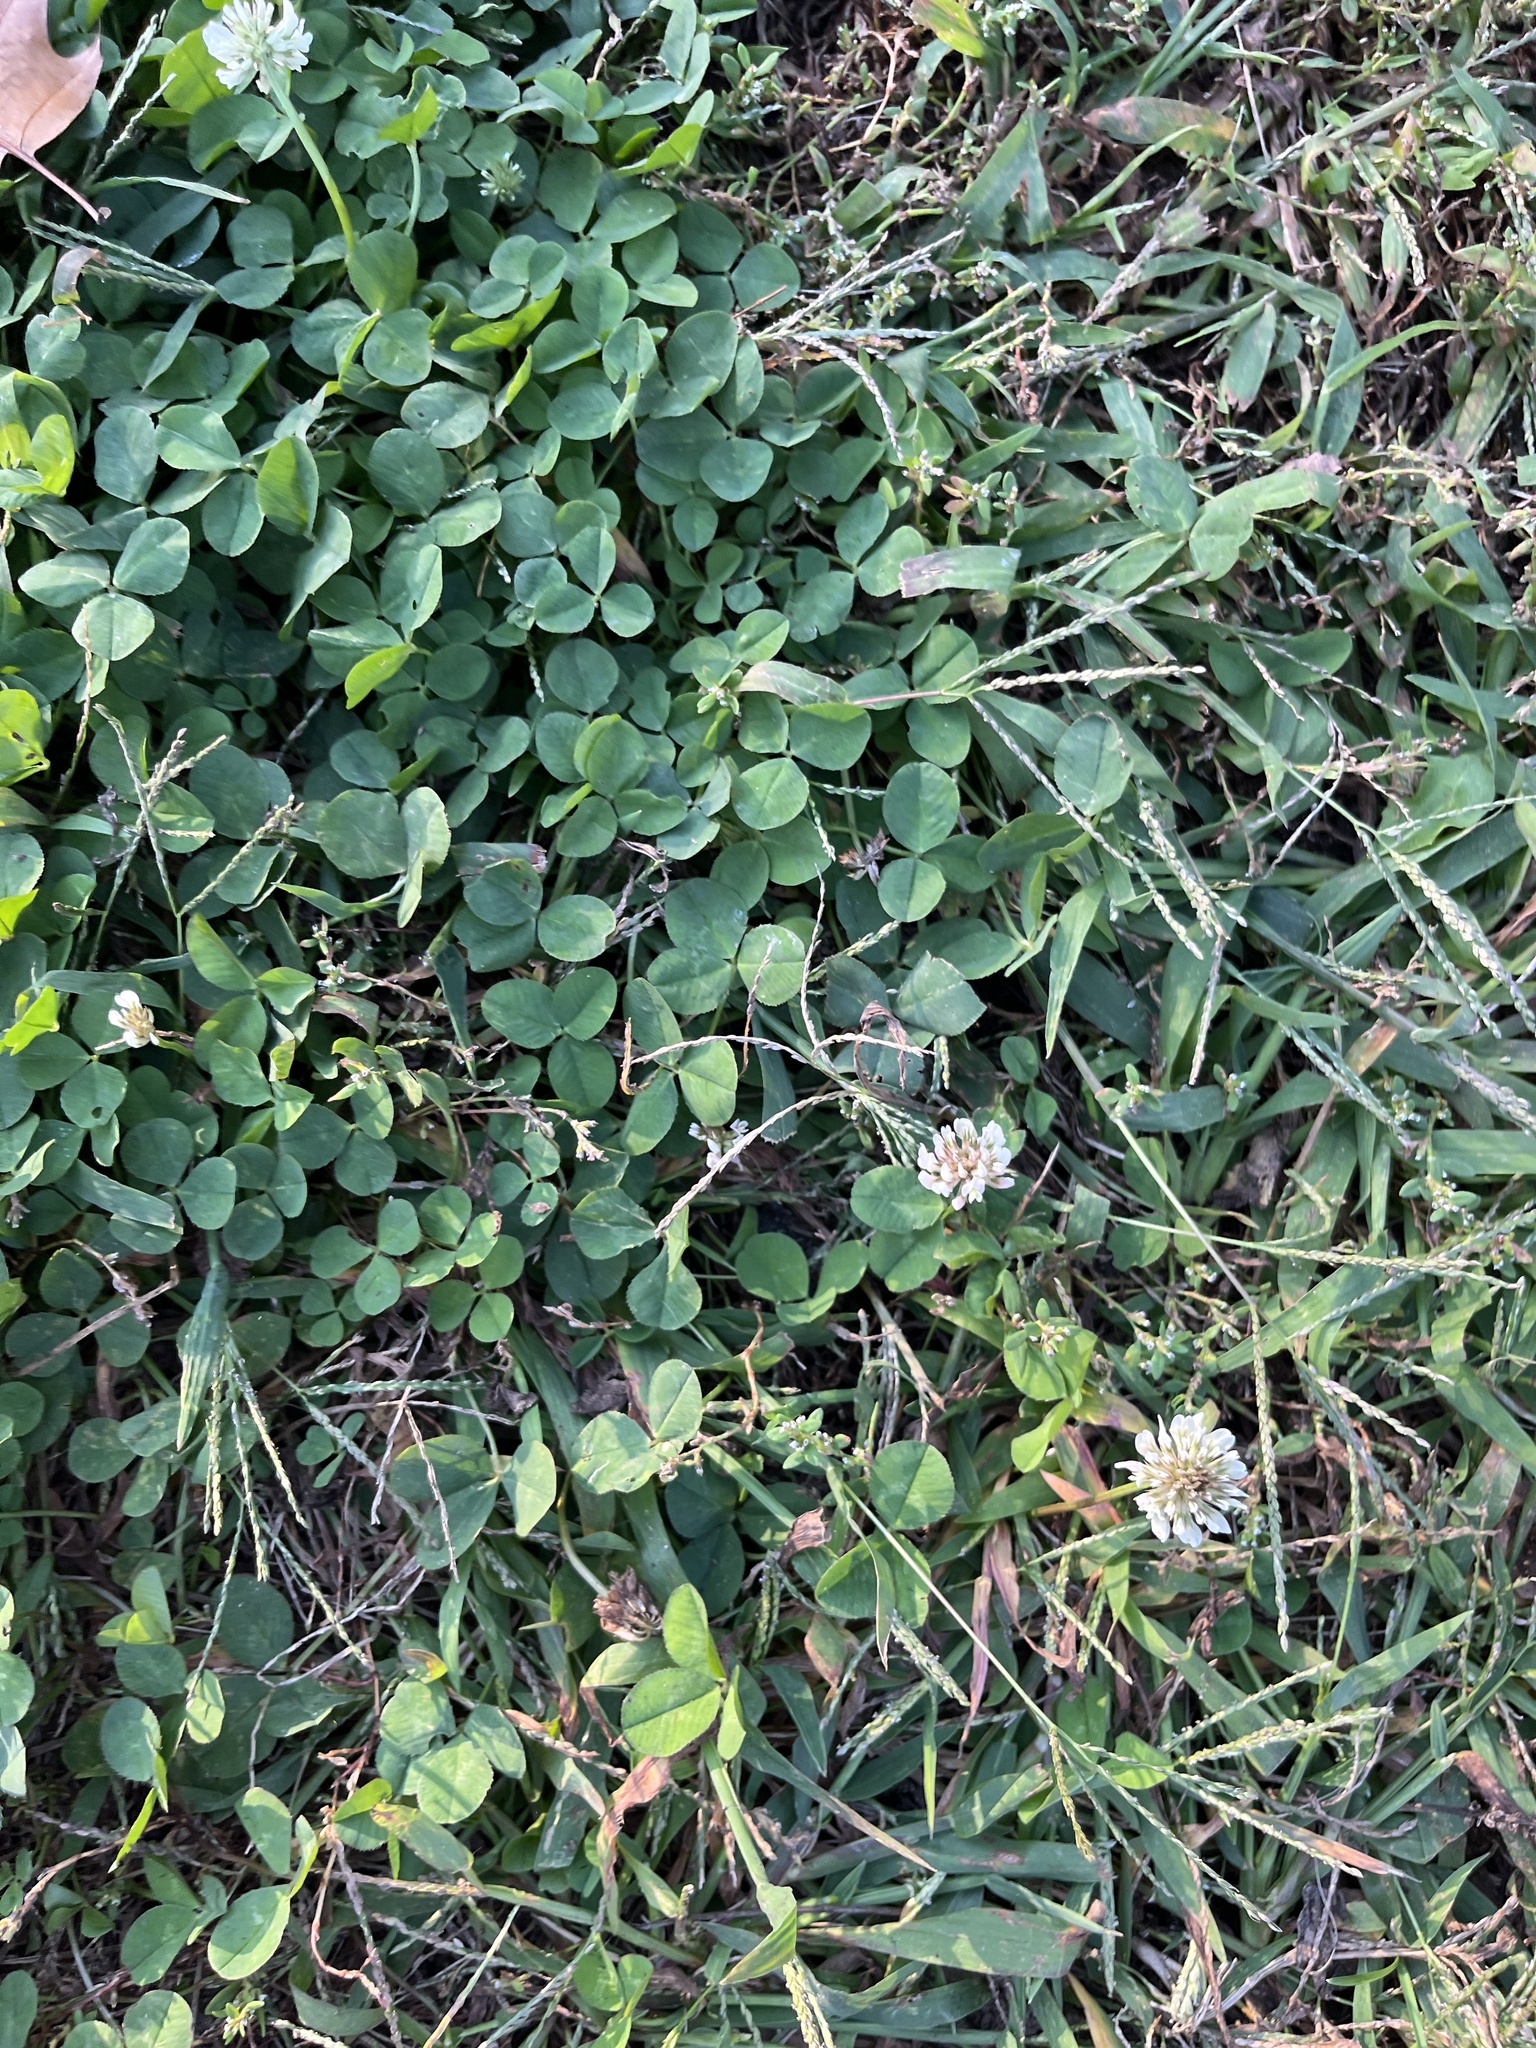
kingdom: Plantae
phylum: Tracheophyta
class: Magnoliopsida
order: Fabales
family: Fabaceae
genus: Trifolium
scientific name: Trifolium repens
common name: White clover
